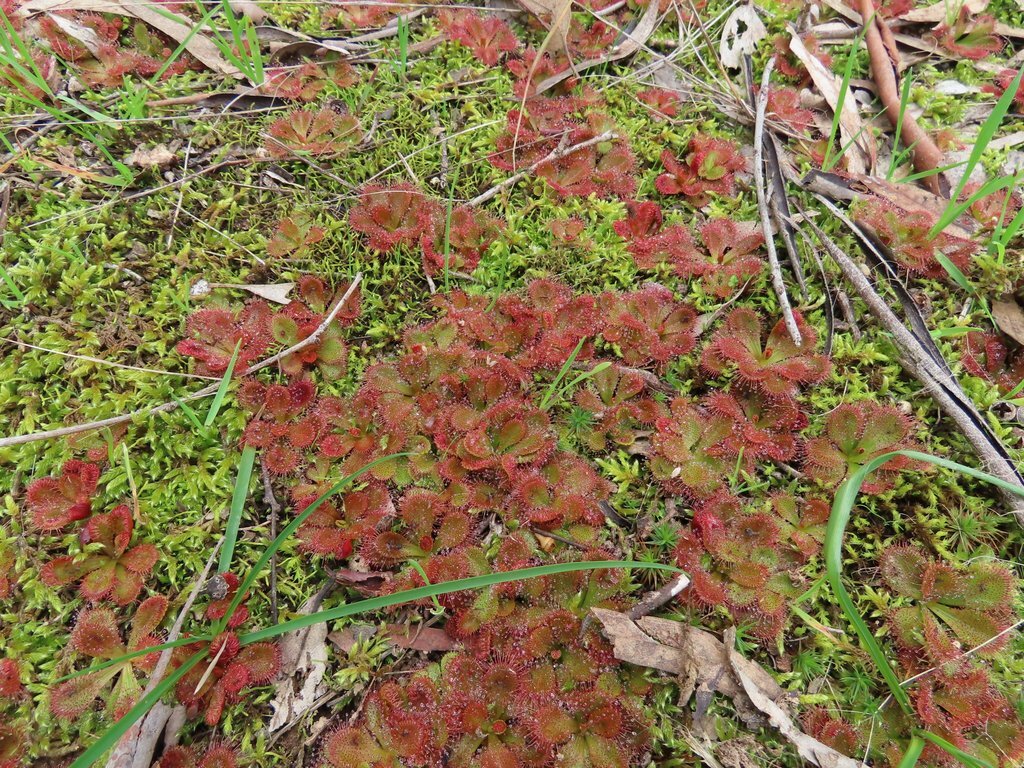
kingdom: Plantae
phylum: Tracheophyta
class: Magnoliopsida
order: Caryophyllales
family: Droseraceae
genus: Drosera
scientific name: Drosera aberrans
